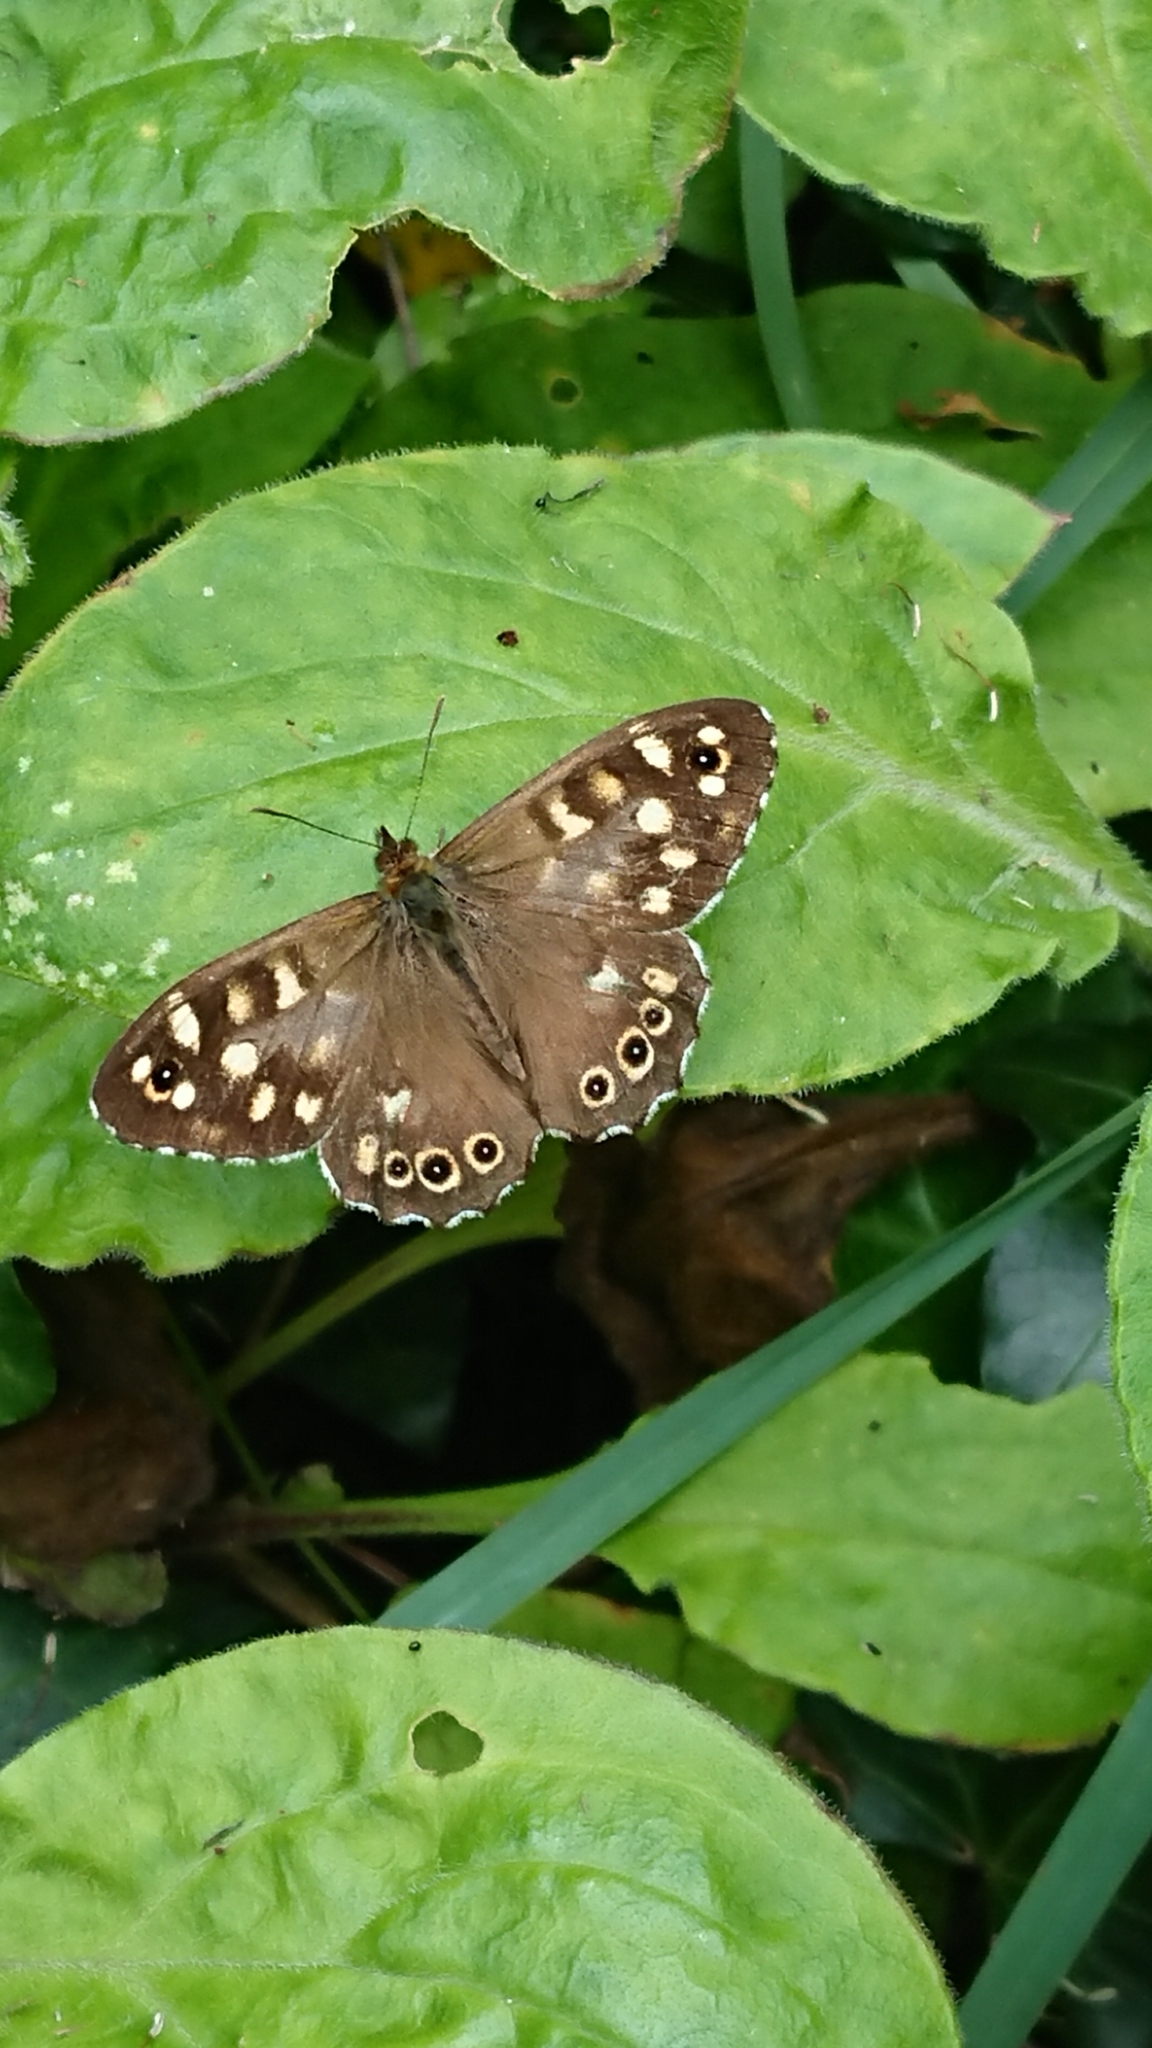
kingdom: Animalia
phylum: Arthropoda
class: Insecta
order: Lepidoptera
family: Nymphalidae
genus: Pararge
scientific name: Pararge aegeria
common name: Speckled wood
